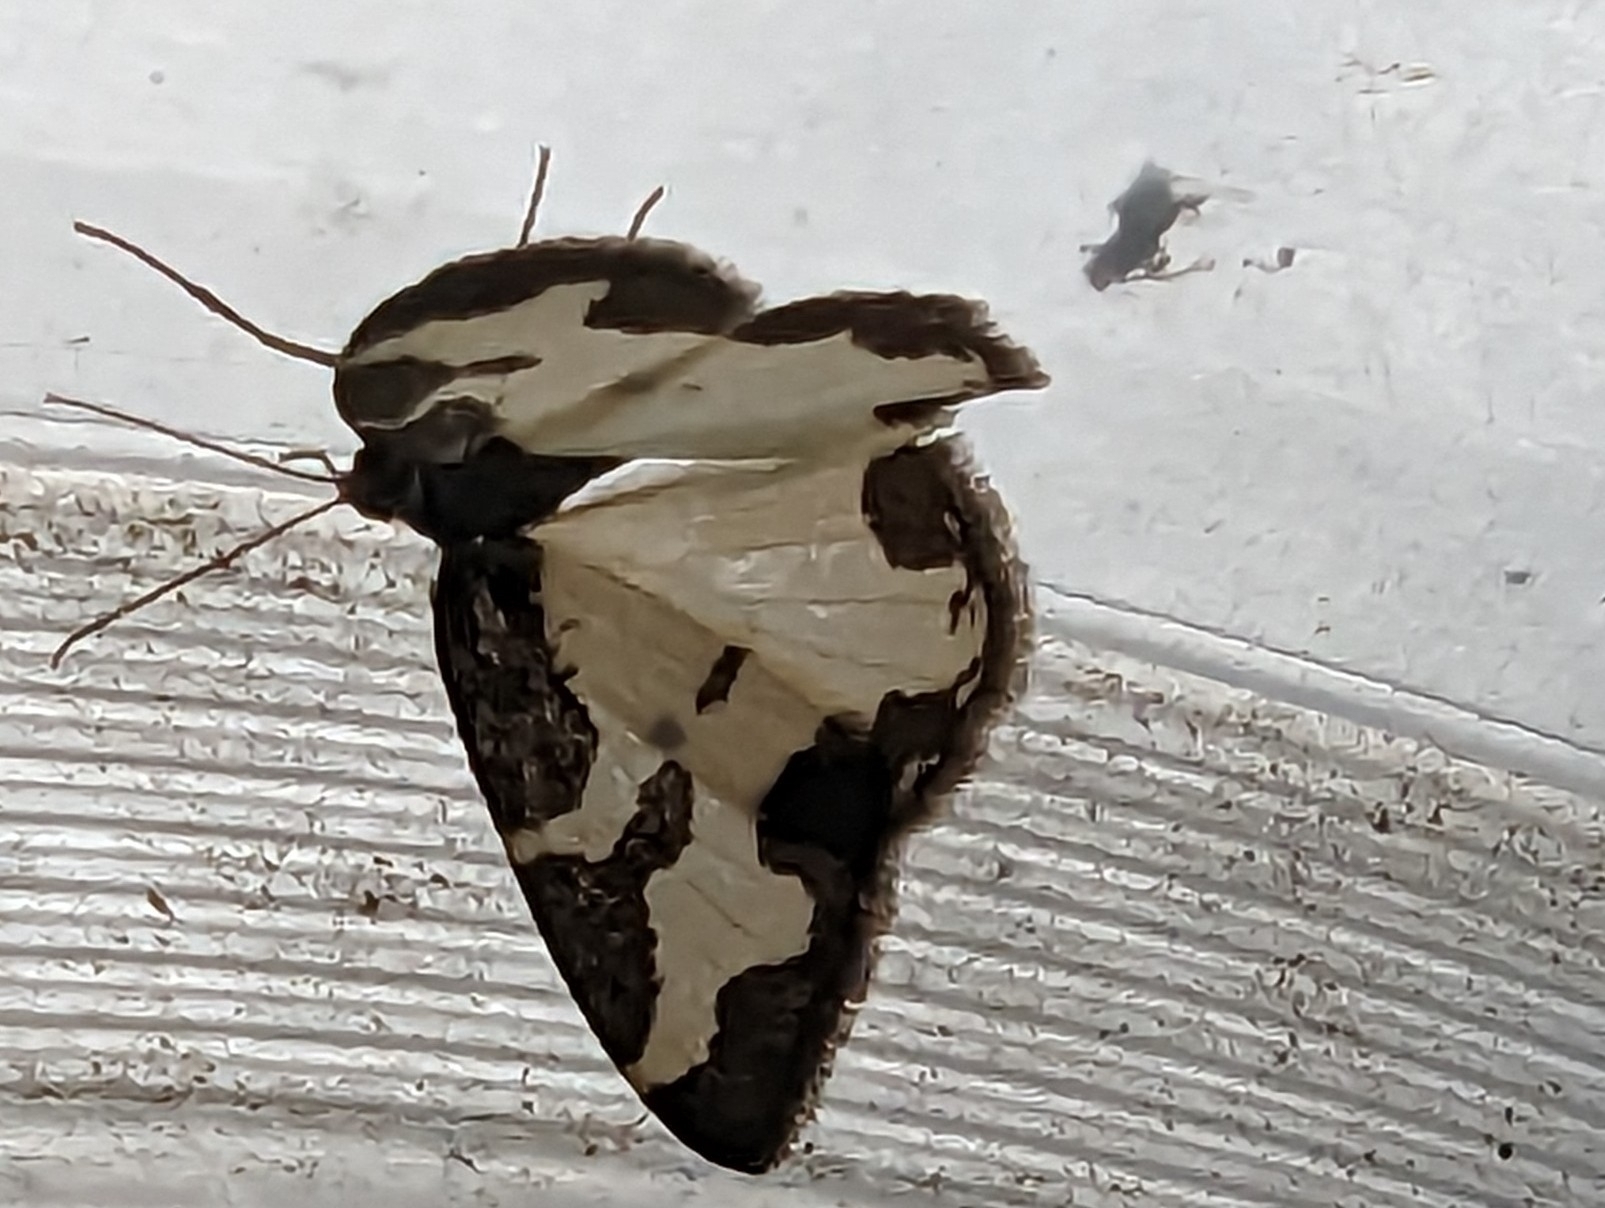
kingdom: Animalia
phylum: Arthropoda
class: Insecta
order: Lepidoptera
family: Geometridae
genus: Lomaspilis
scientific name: Lomaspilis marginata
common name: Clouded border
